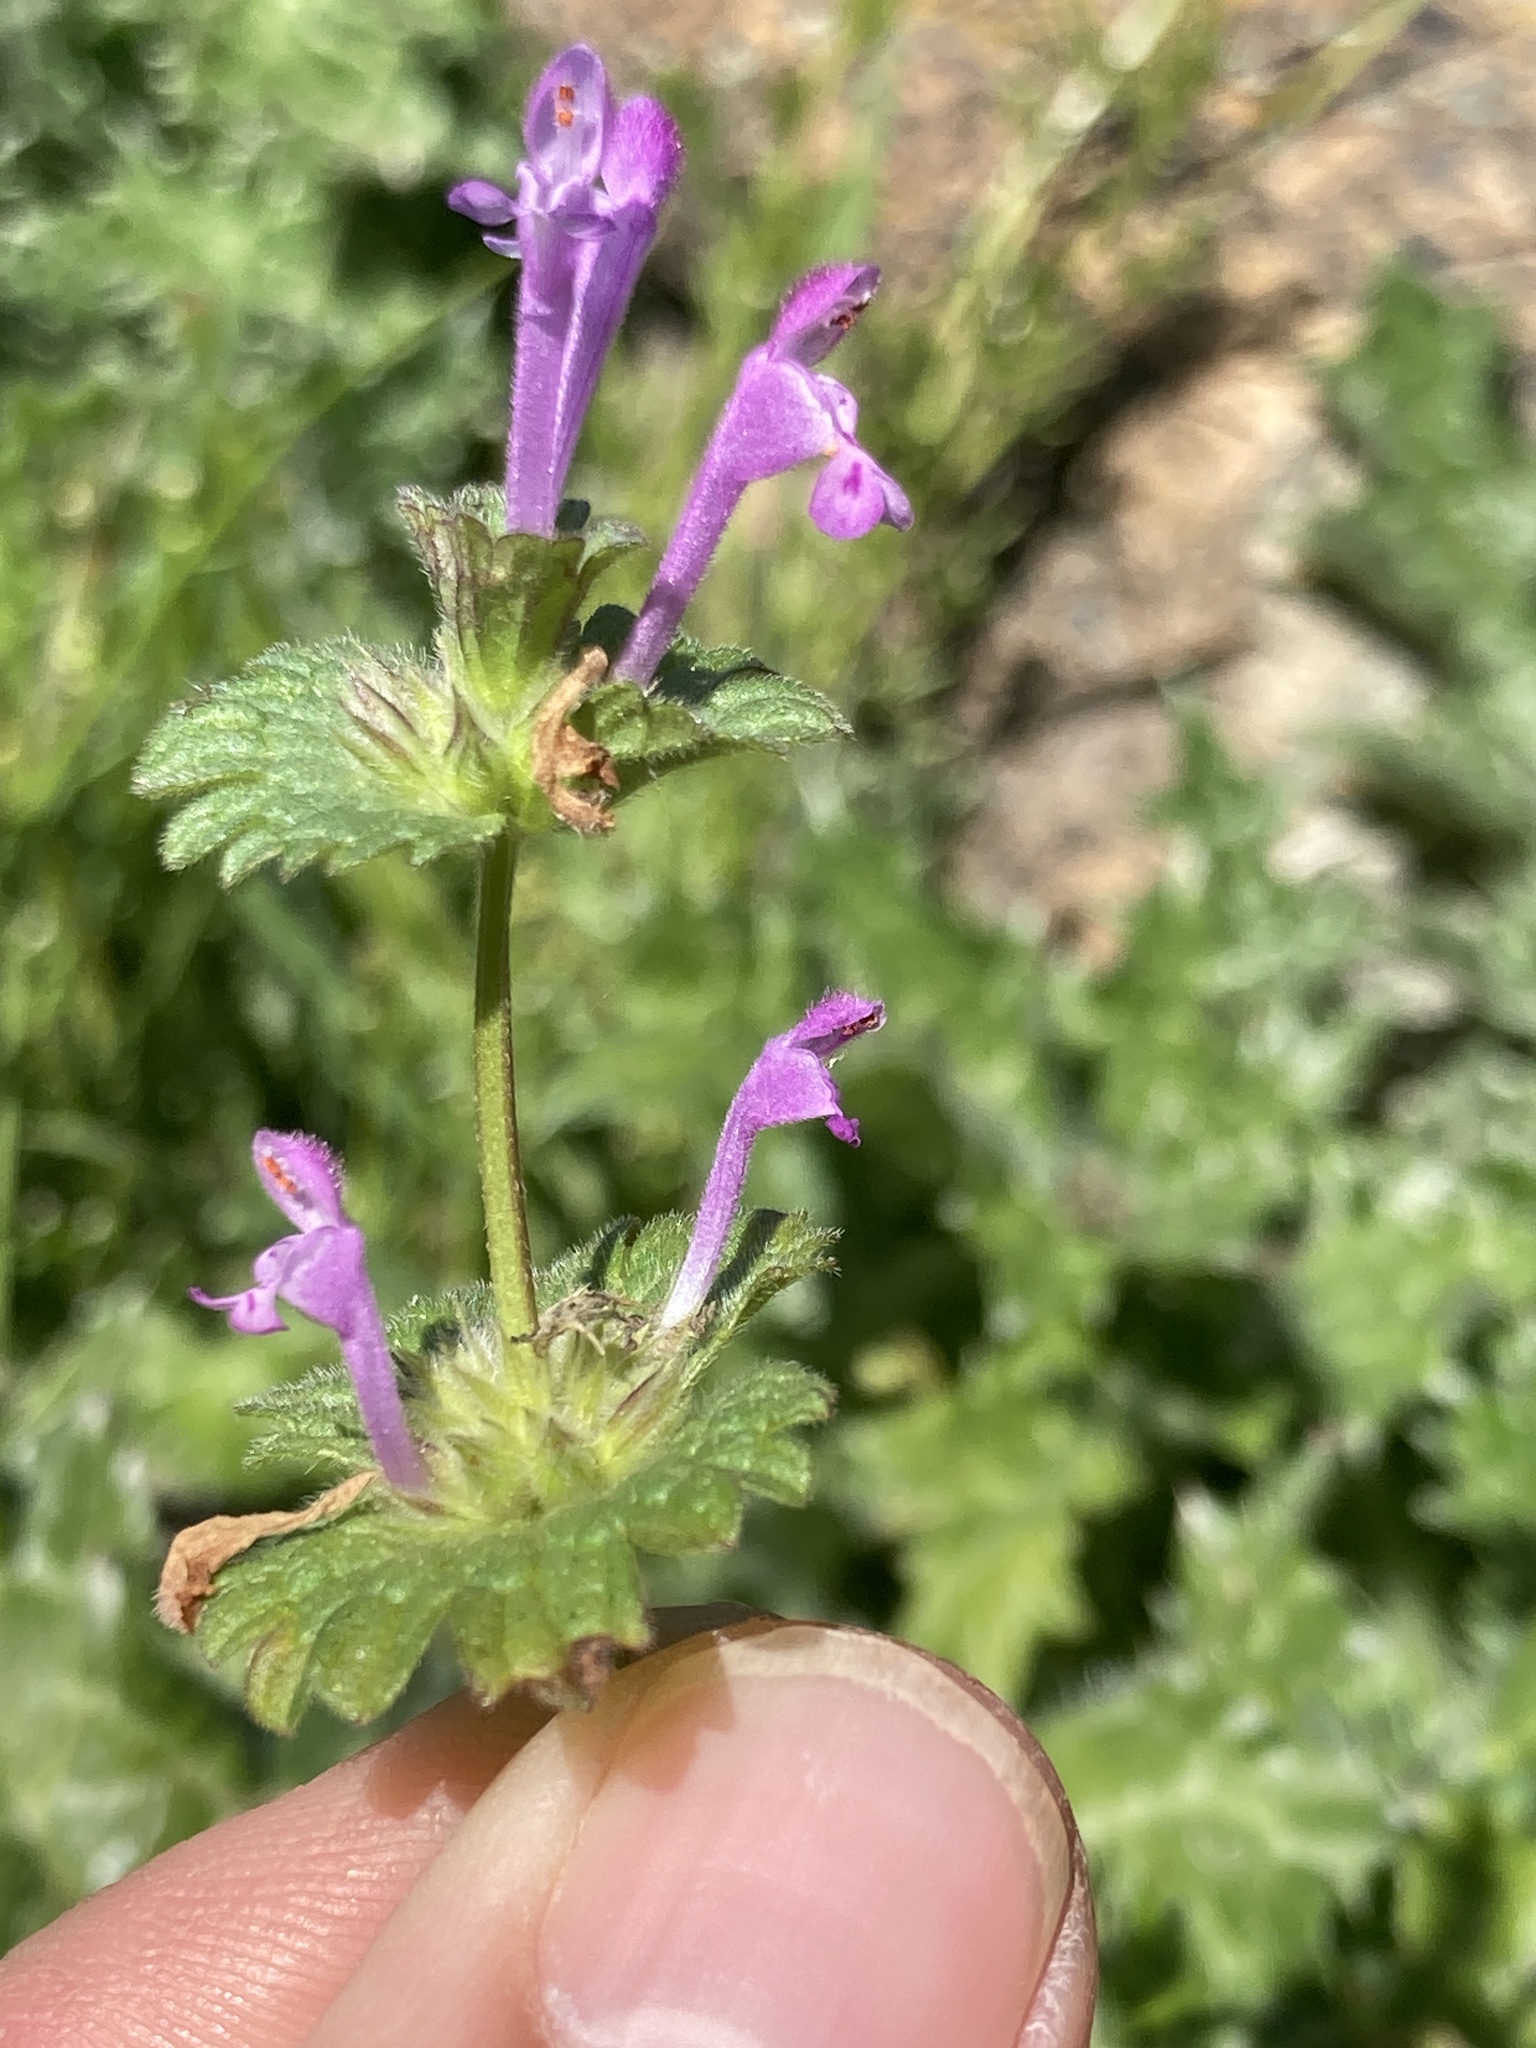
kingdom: Plantae
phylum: Tracheophyta
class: Magnoliopsida
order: Lamiales
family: Lamiaceae
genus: Lamium
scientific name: Lamium amplexicaule
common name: Henbit dead-nettle
